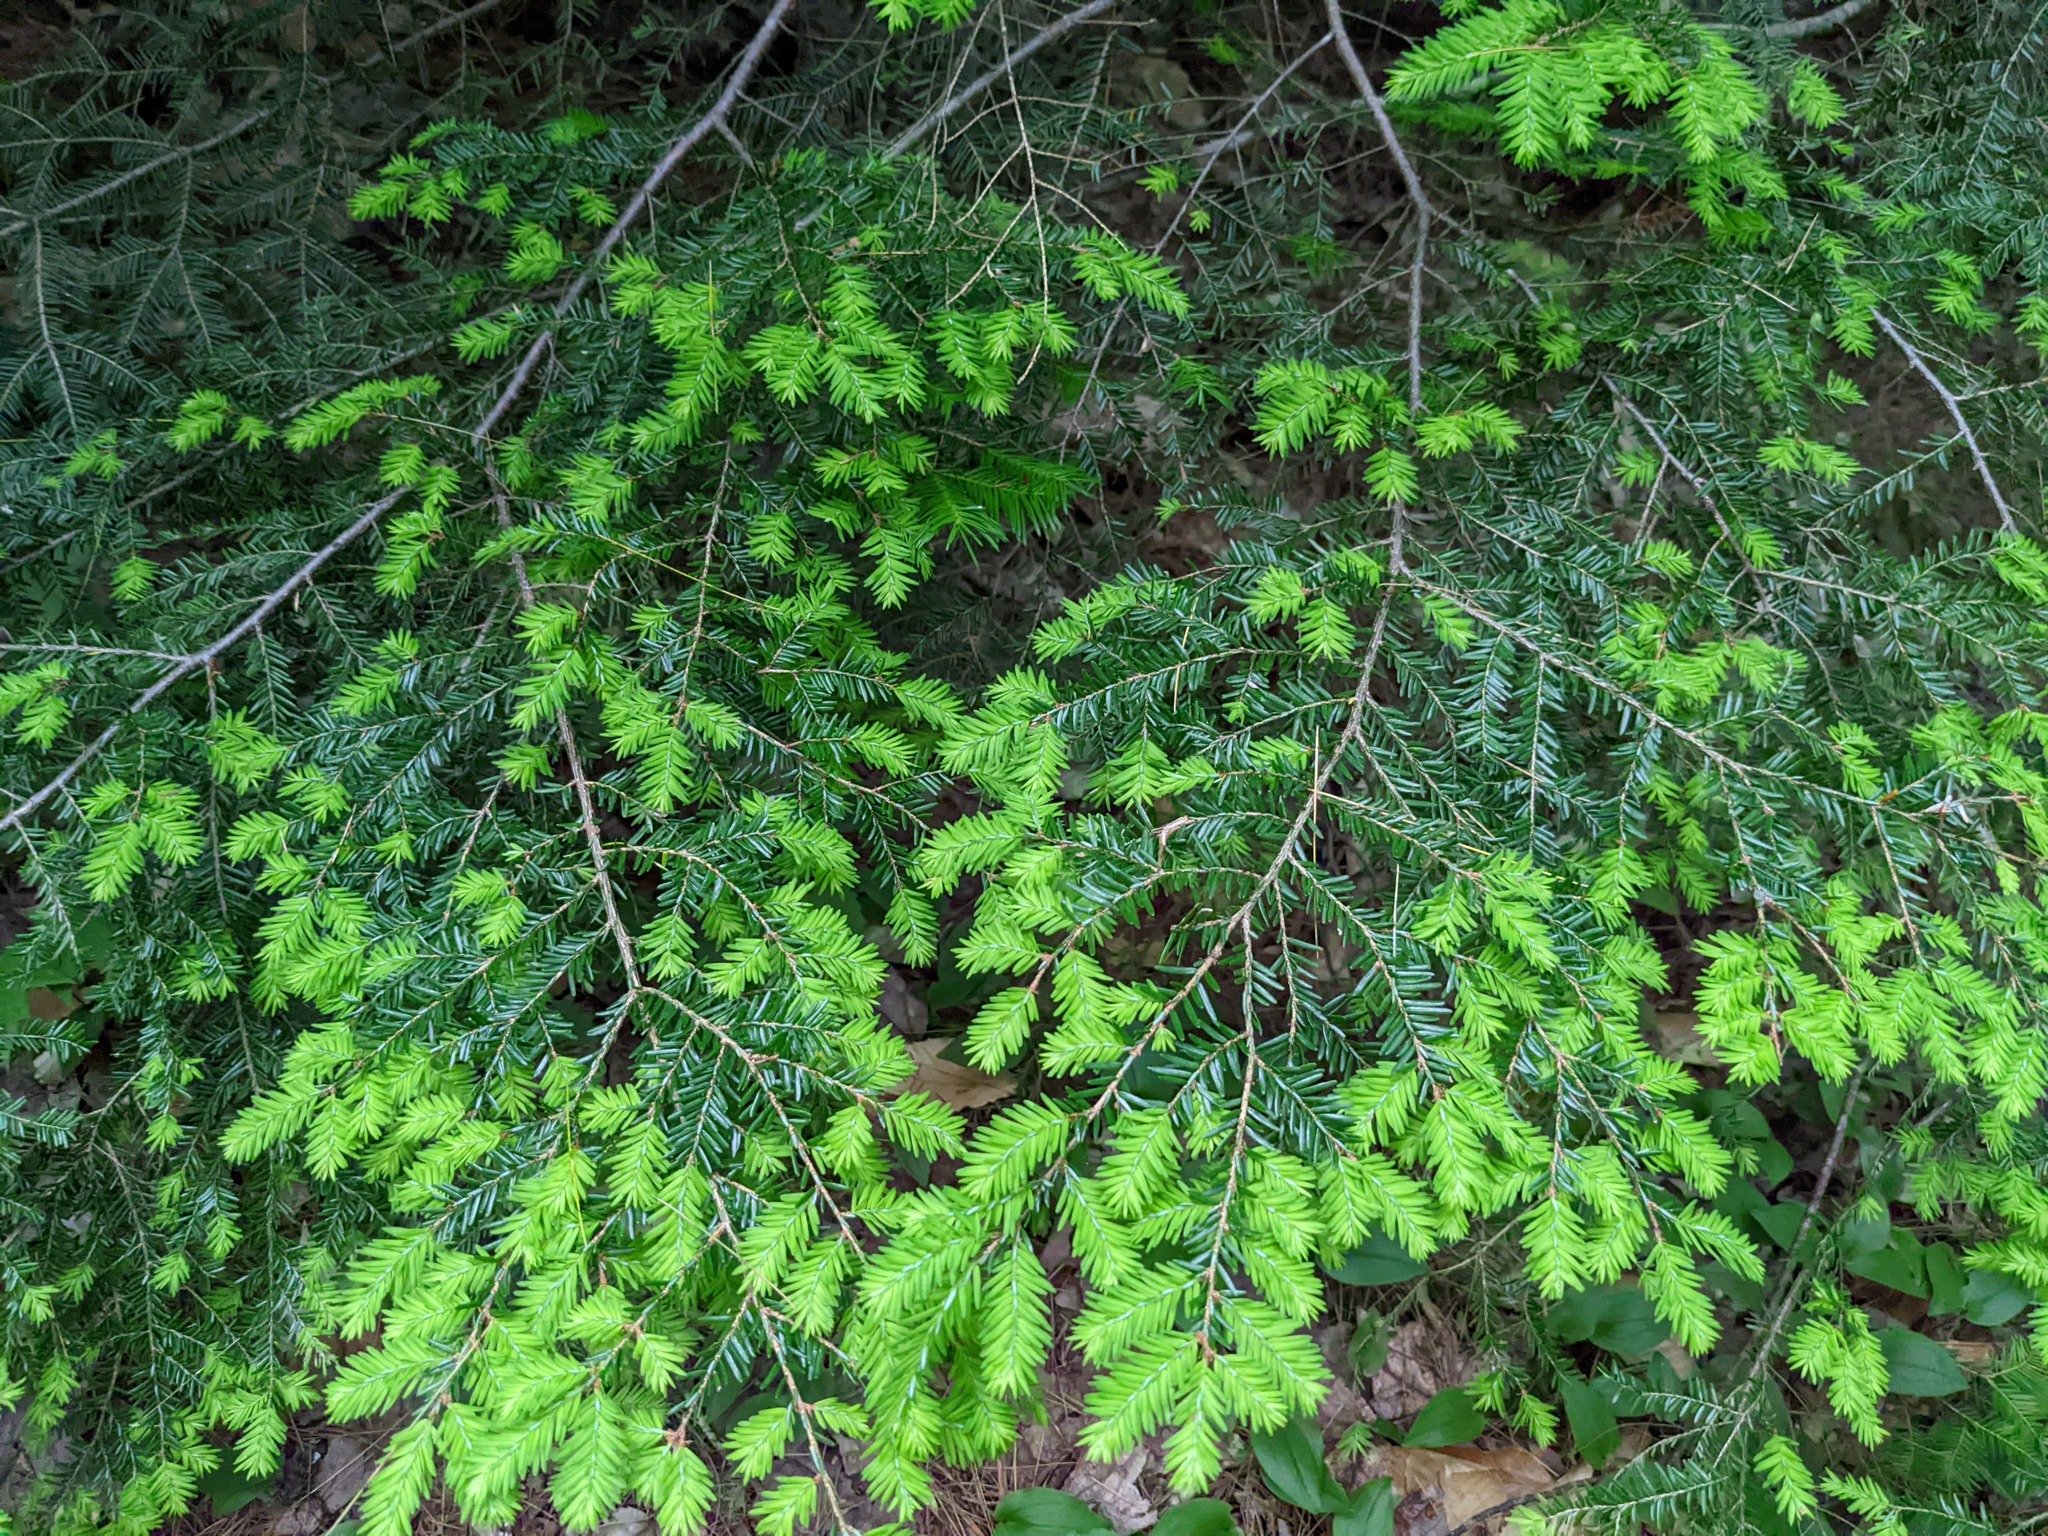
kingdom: Plantae
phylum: Tracheophyta
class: Pinopsida
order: Pinales
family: Pinaceae
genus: Tsuga
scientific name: Tsuga canadensis
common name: Eastern hemlock
